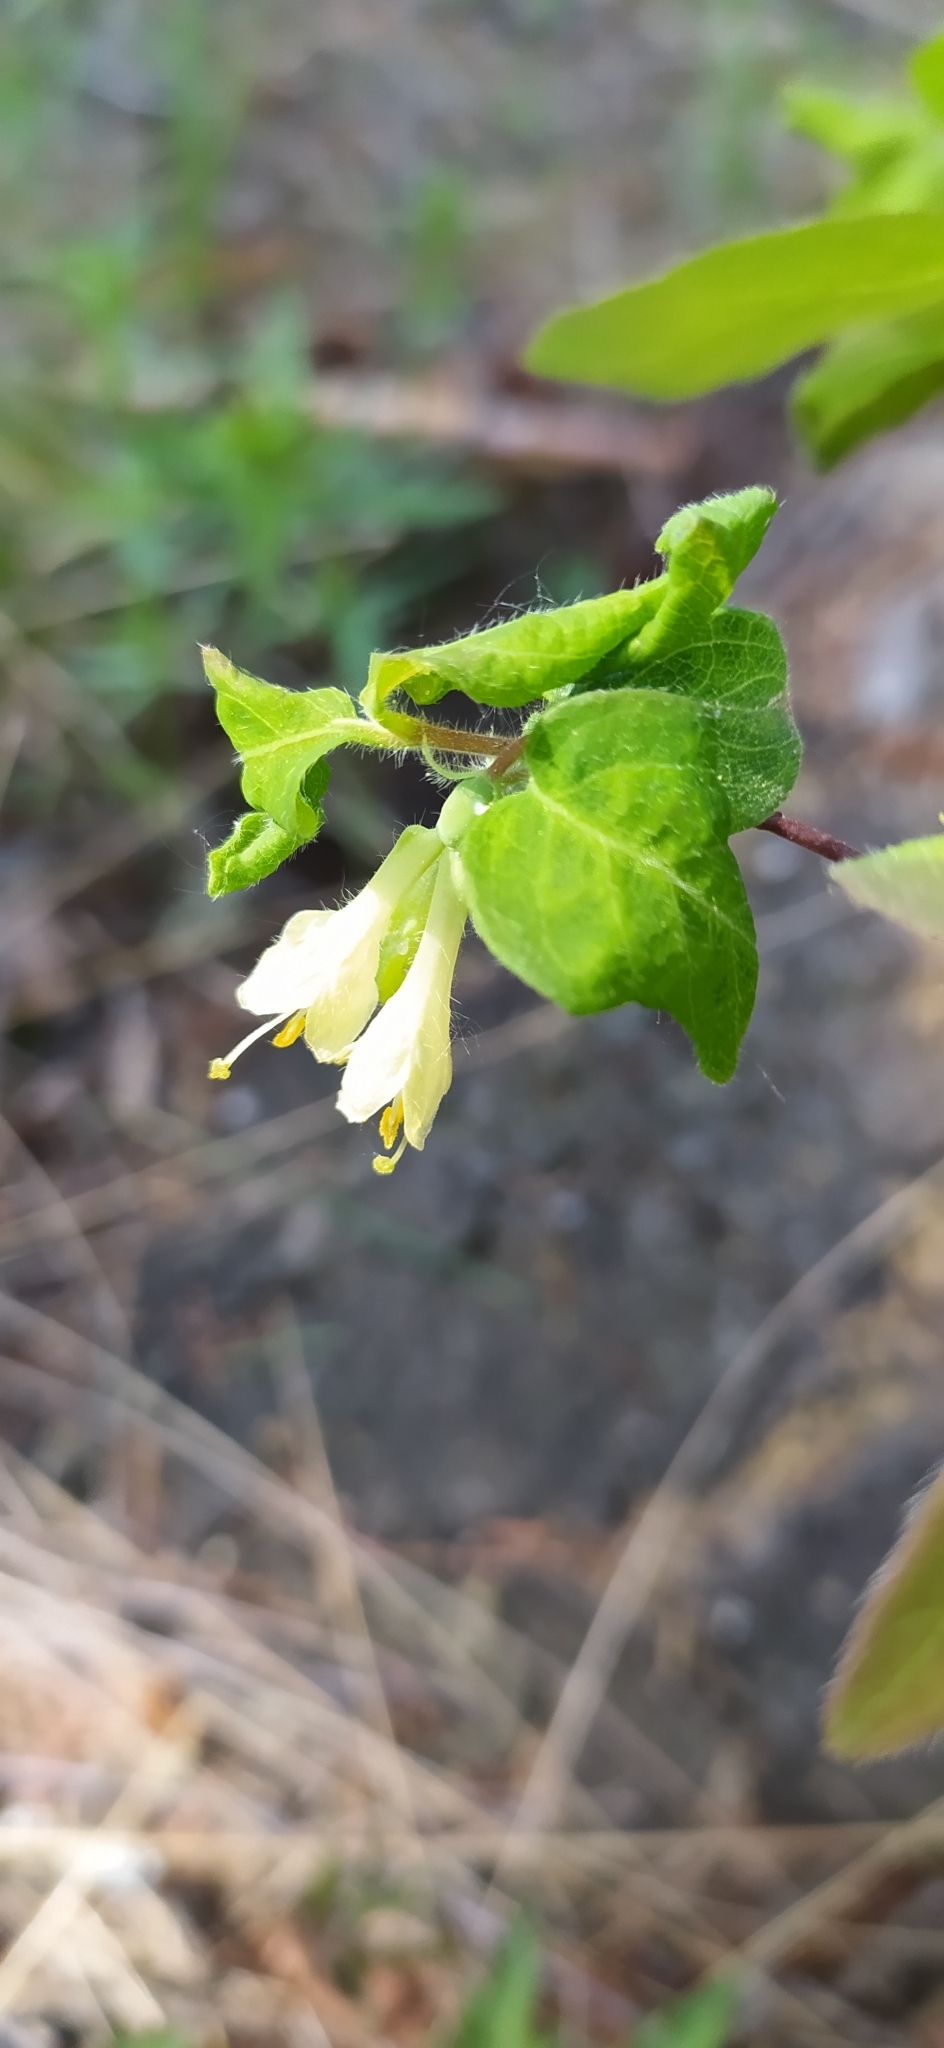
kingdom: Plantae
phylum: Tracheophyta
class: Magnoliopsida
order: Dipsacales
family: Caprifoliaceae
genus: Lonicera
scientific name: Lonicera caerulea
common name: Blue honeysuckle
